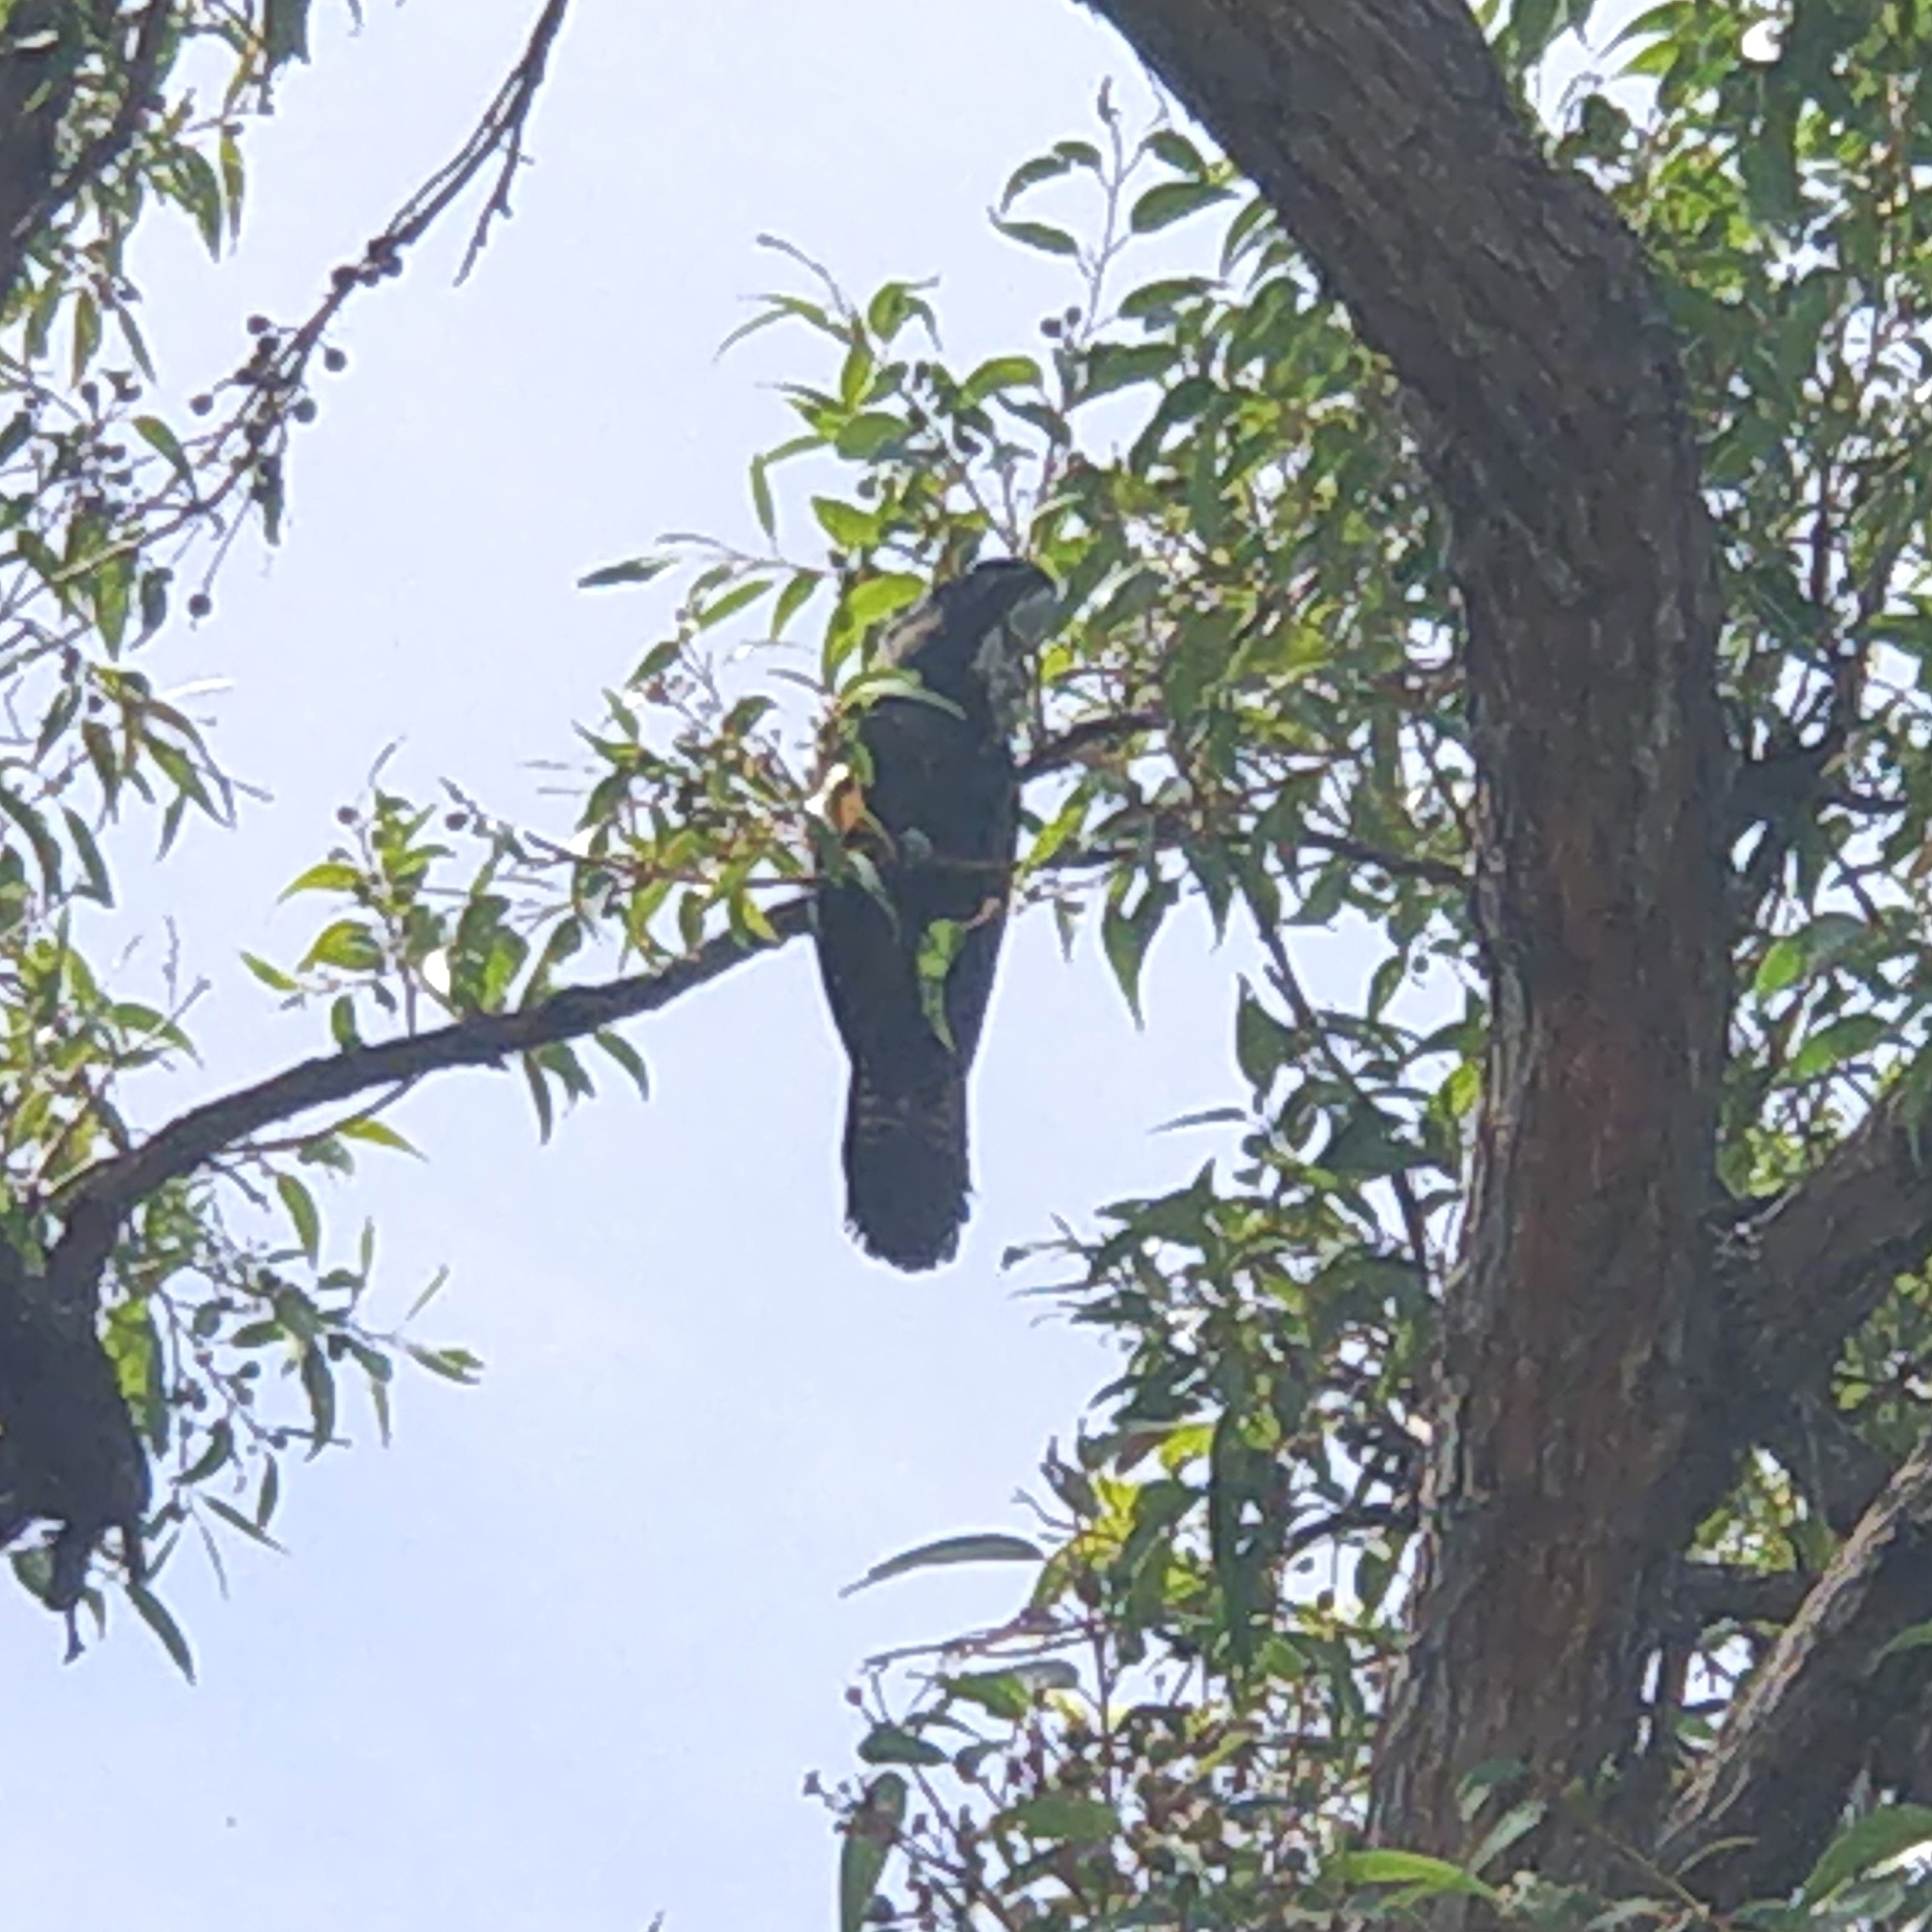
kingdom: Animalia
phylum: Chordata
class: Aves
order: Psittaciformes
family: Psittacidae
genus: Calyptorhynchus
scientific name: Calyptorhynchus banksii
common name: Red-tailed black cockatoo
